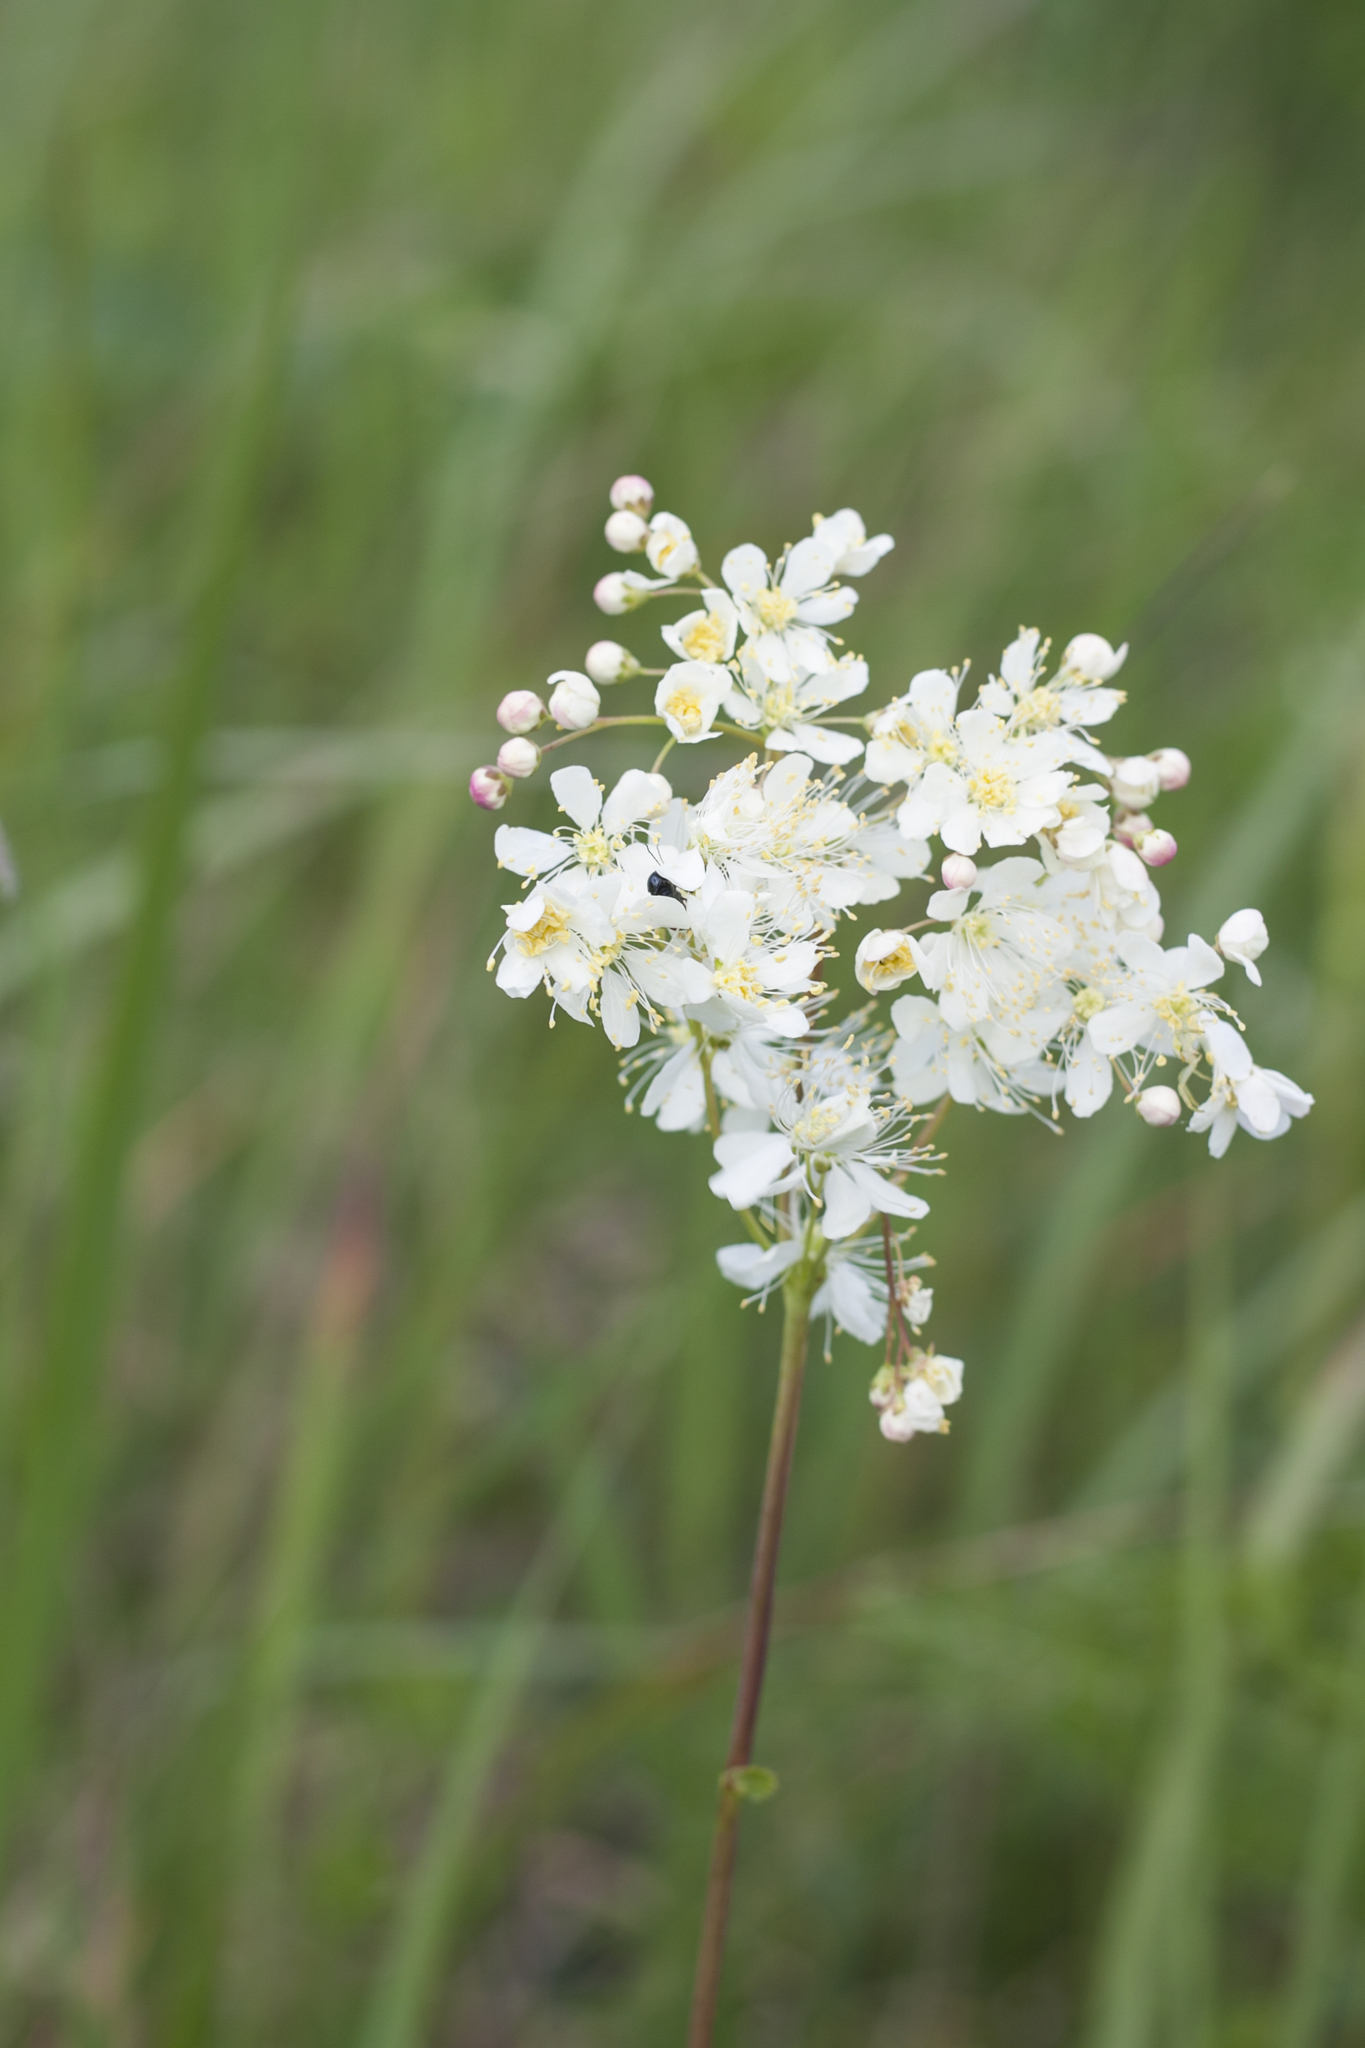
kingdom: Plantae
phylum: Tracheophyta
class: Magnoliopsida
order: Rosales
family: Rosaceae
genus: Filipendula
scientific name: Filipendula vulgaris
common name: Dropwort
